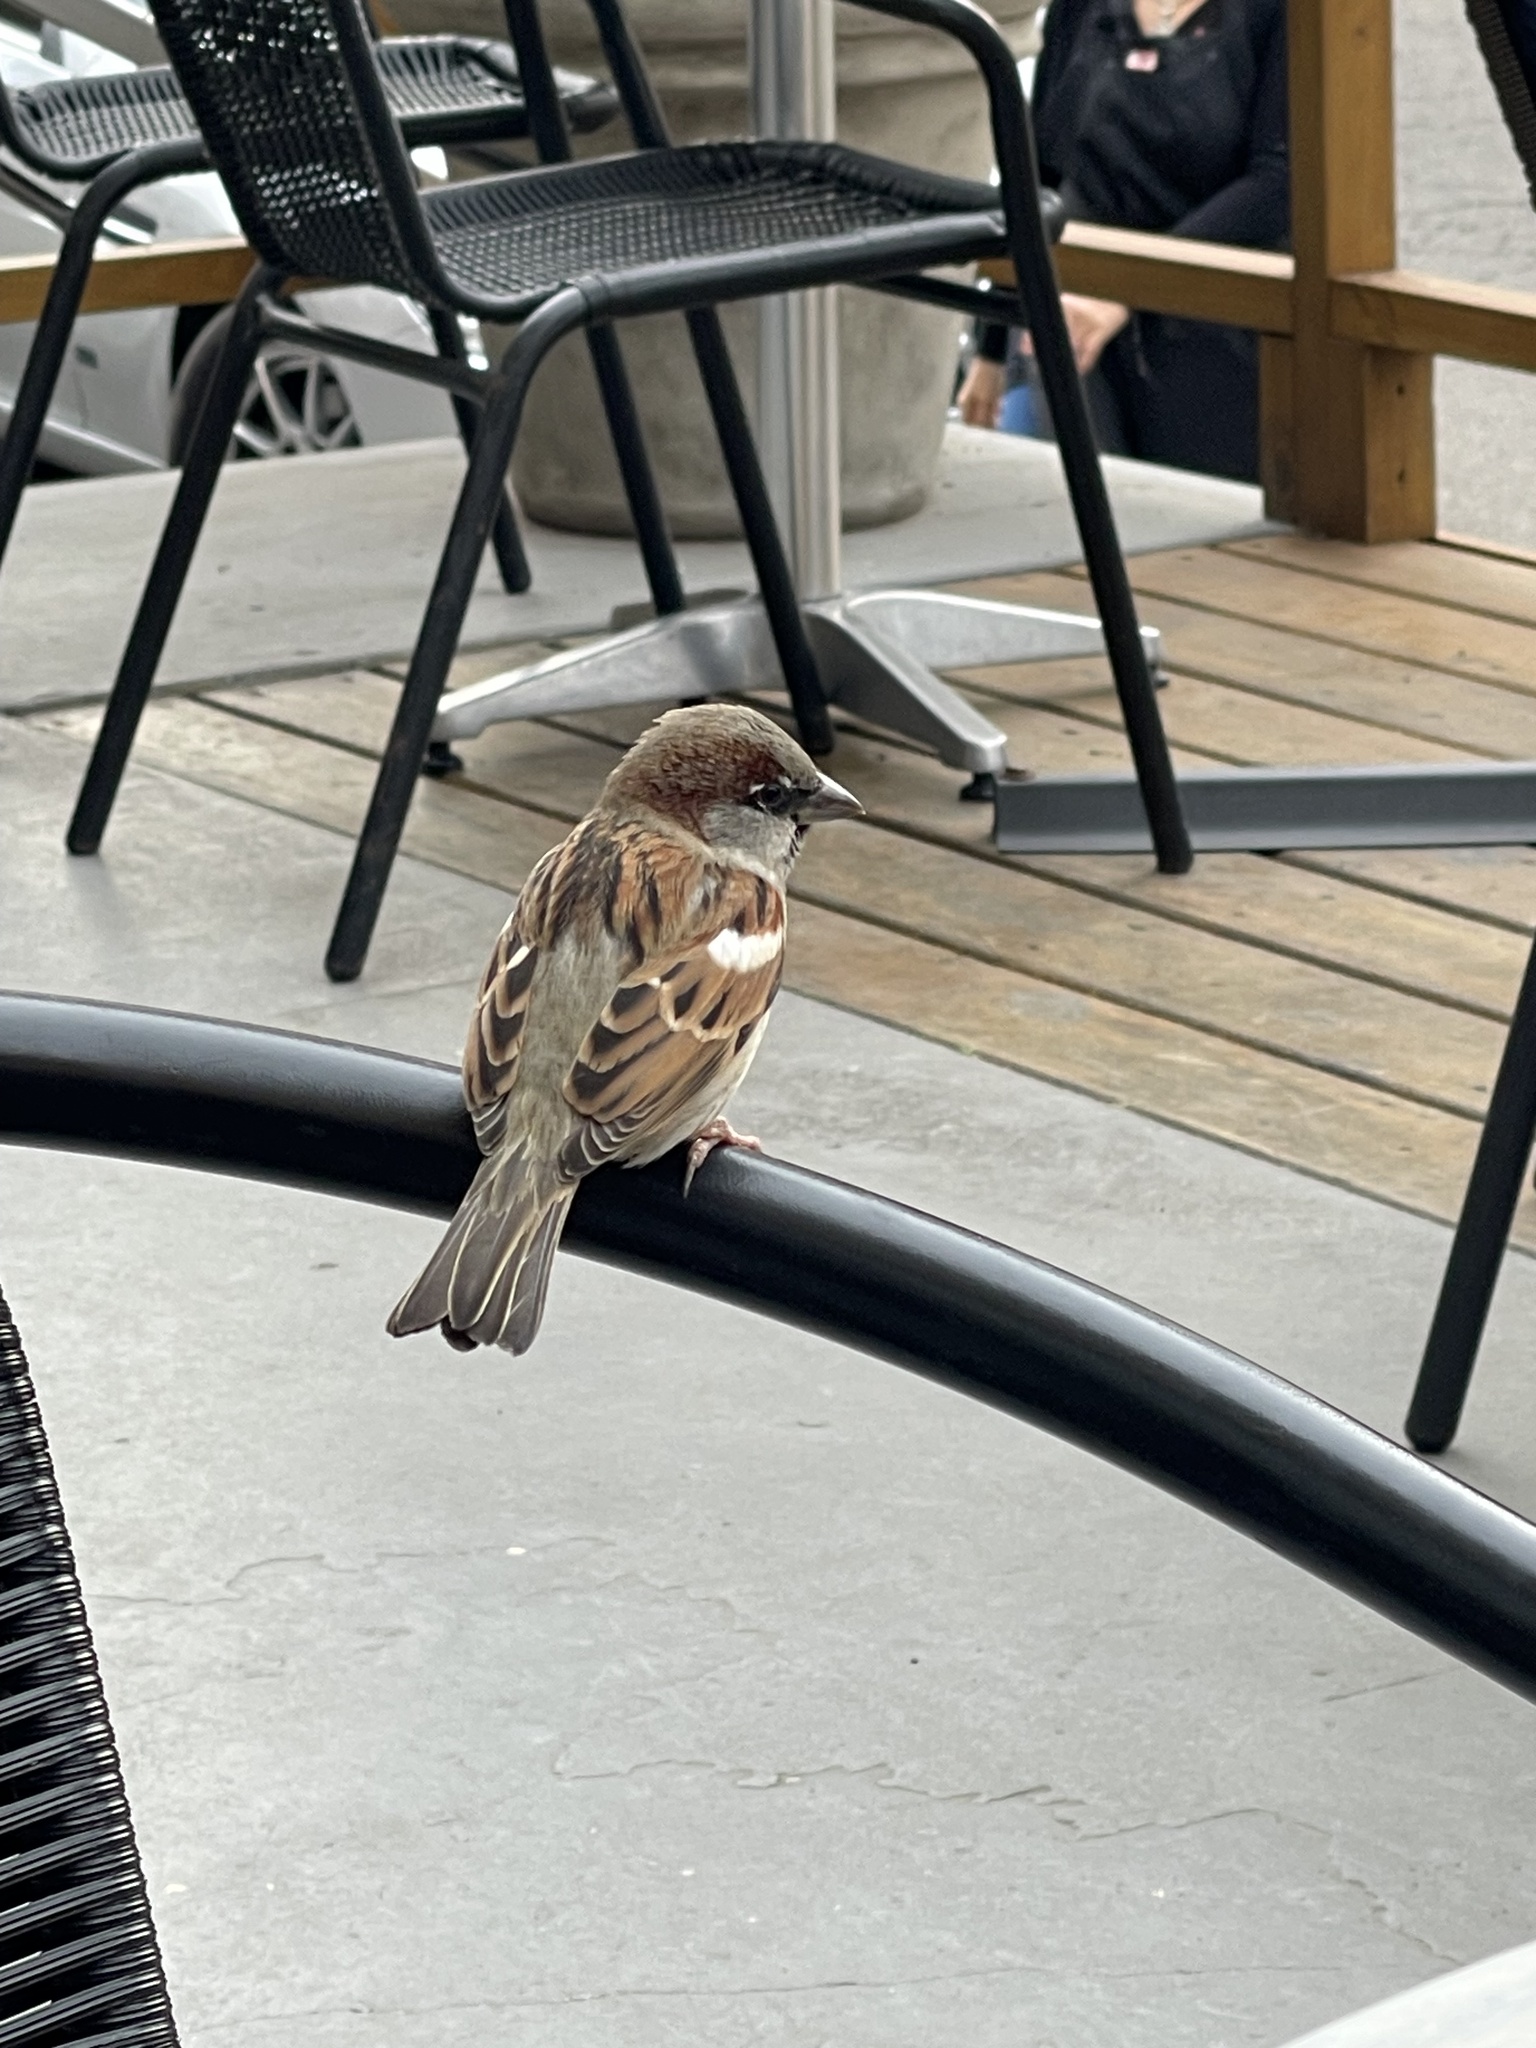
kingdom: Animalia
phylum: Chordata
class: Aves
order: Passeriformes
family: Passeridae
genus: Passer
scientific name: Passer domesticus
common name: House sparrow
